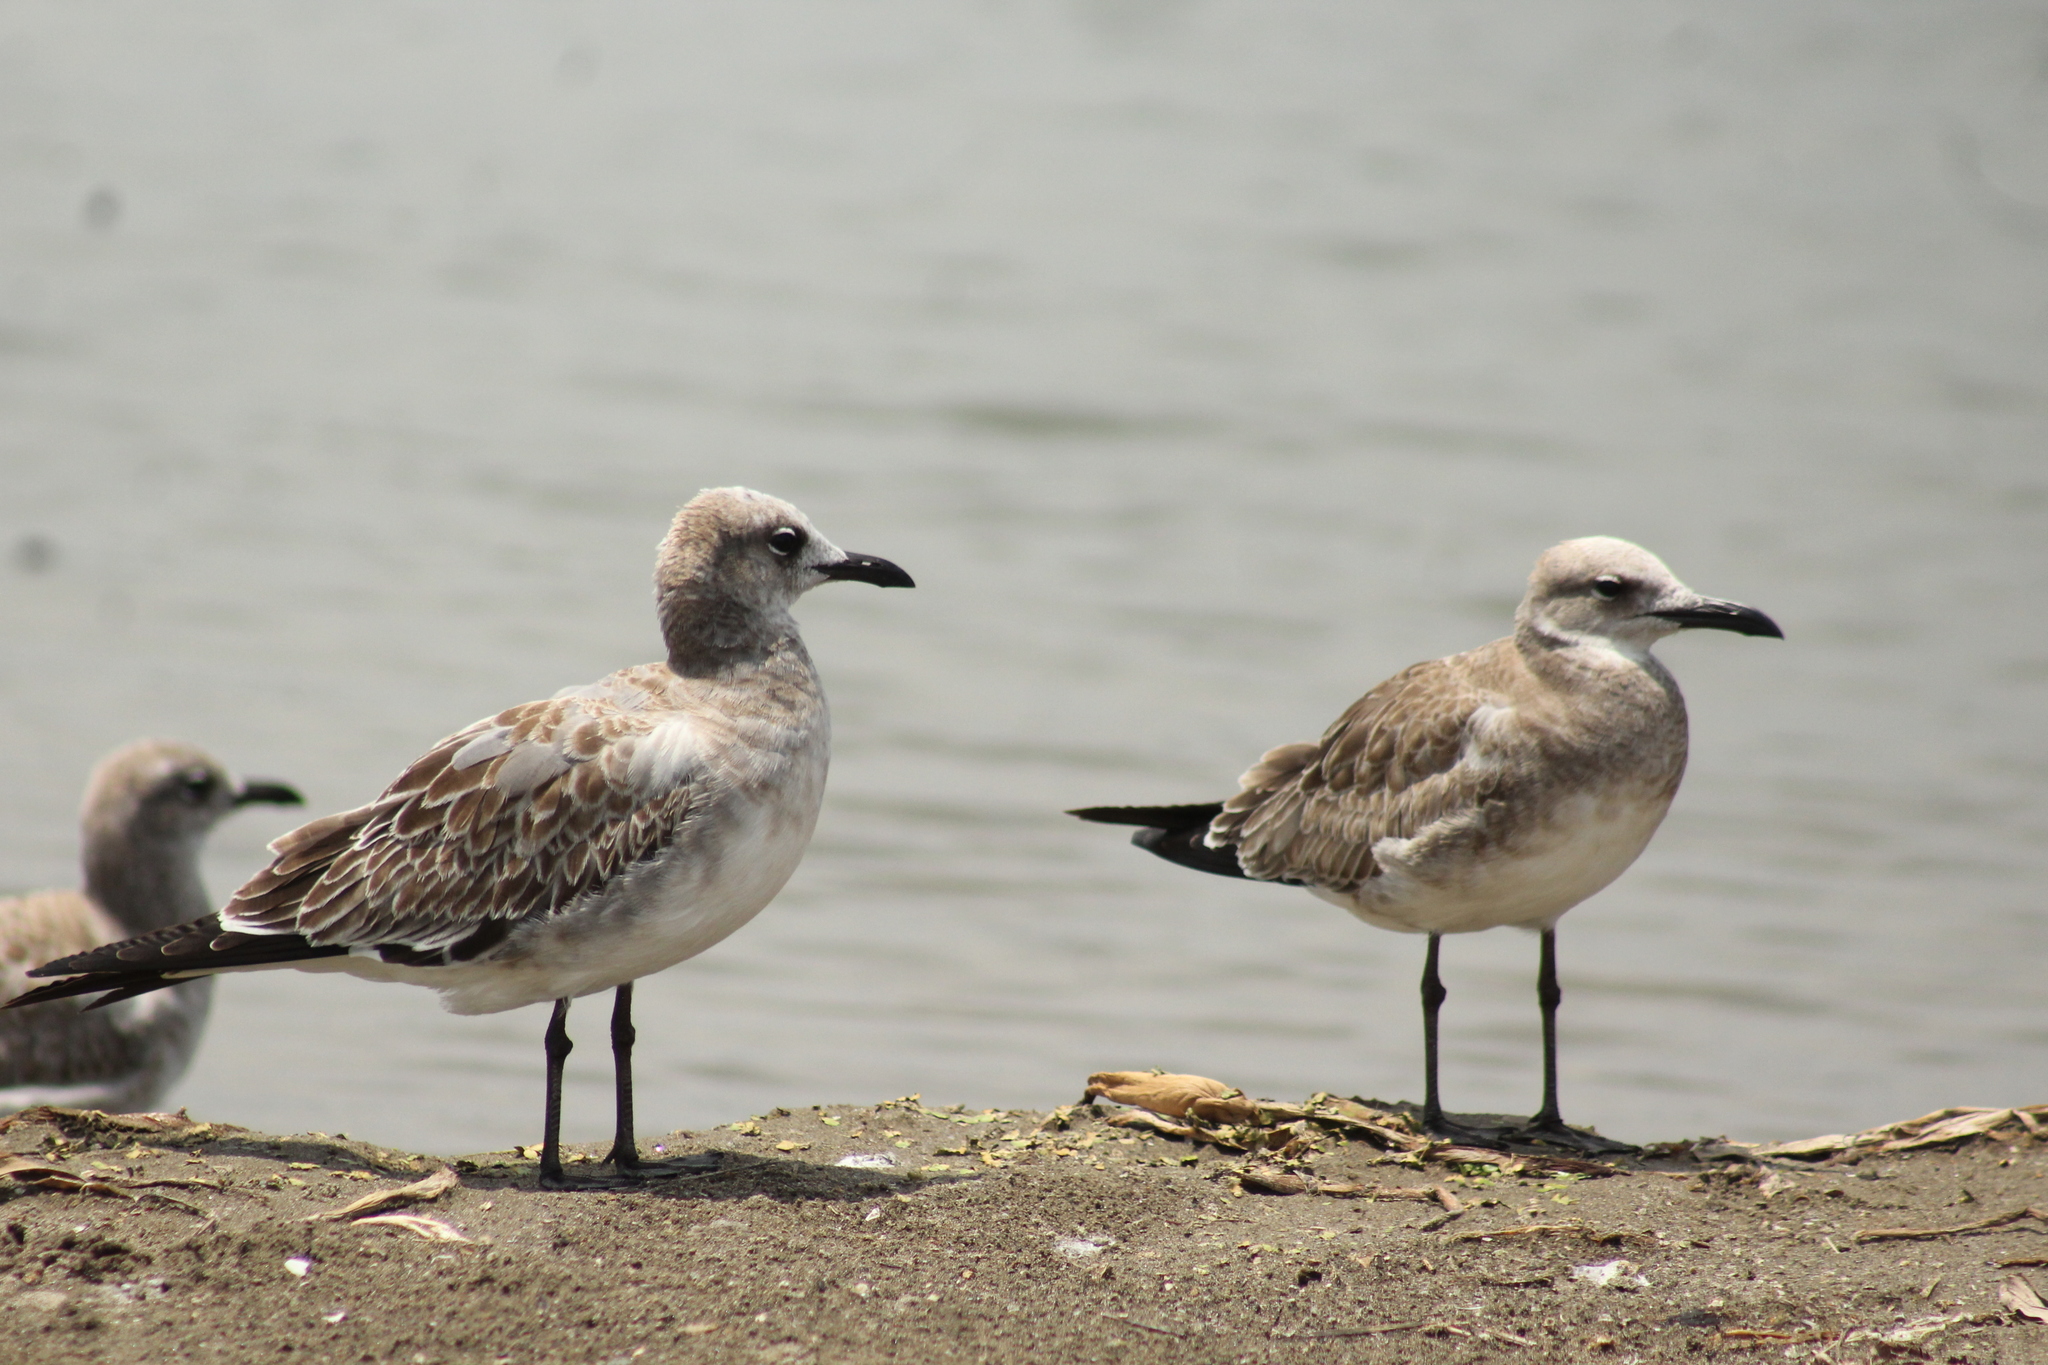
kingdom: Animalia
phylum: Chordata
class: Aves
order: Charadriiformes
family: Laridae
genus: Leucophaeus
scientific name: Leucophaeus atricilla
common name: Laughing gull
